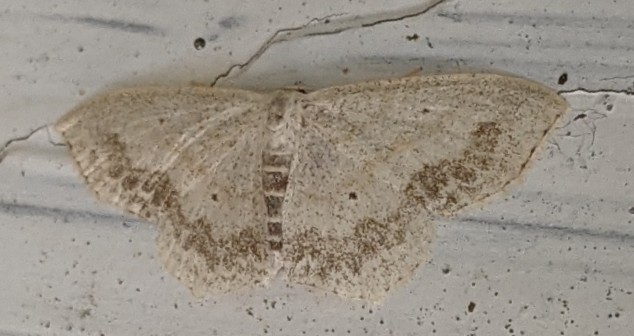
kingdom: Animalia
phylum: Arthropoda
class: Insecta
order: Lepidoptera
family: Geometridae
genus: Scopula
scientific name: Scopula limboundata
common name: Large lace border
